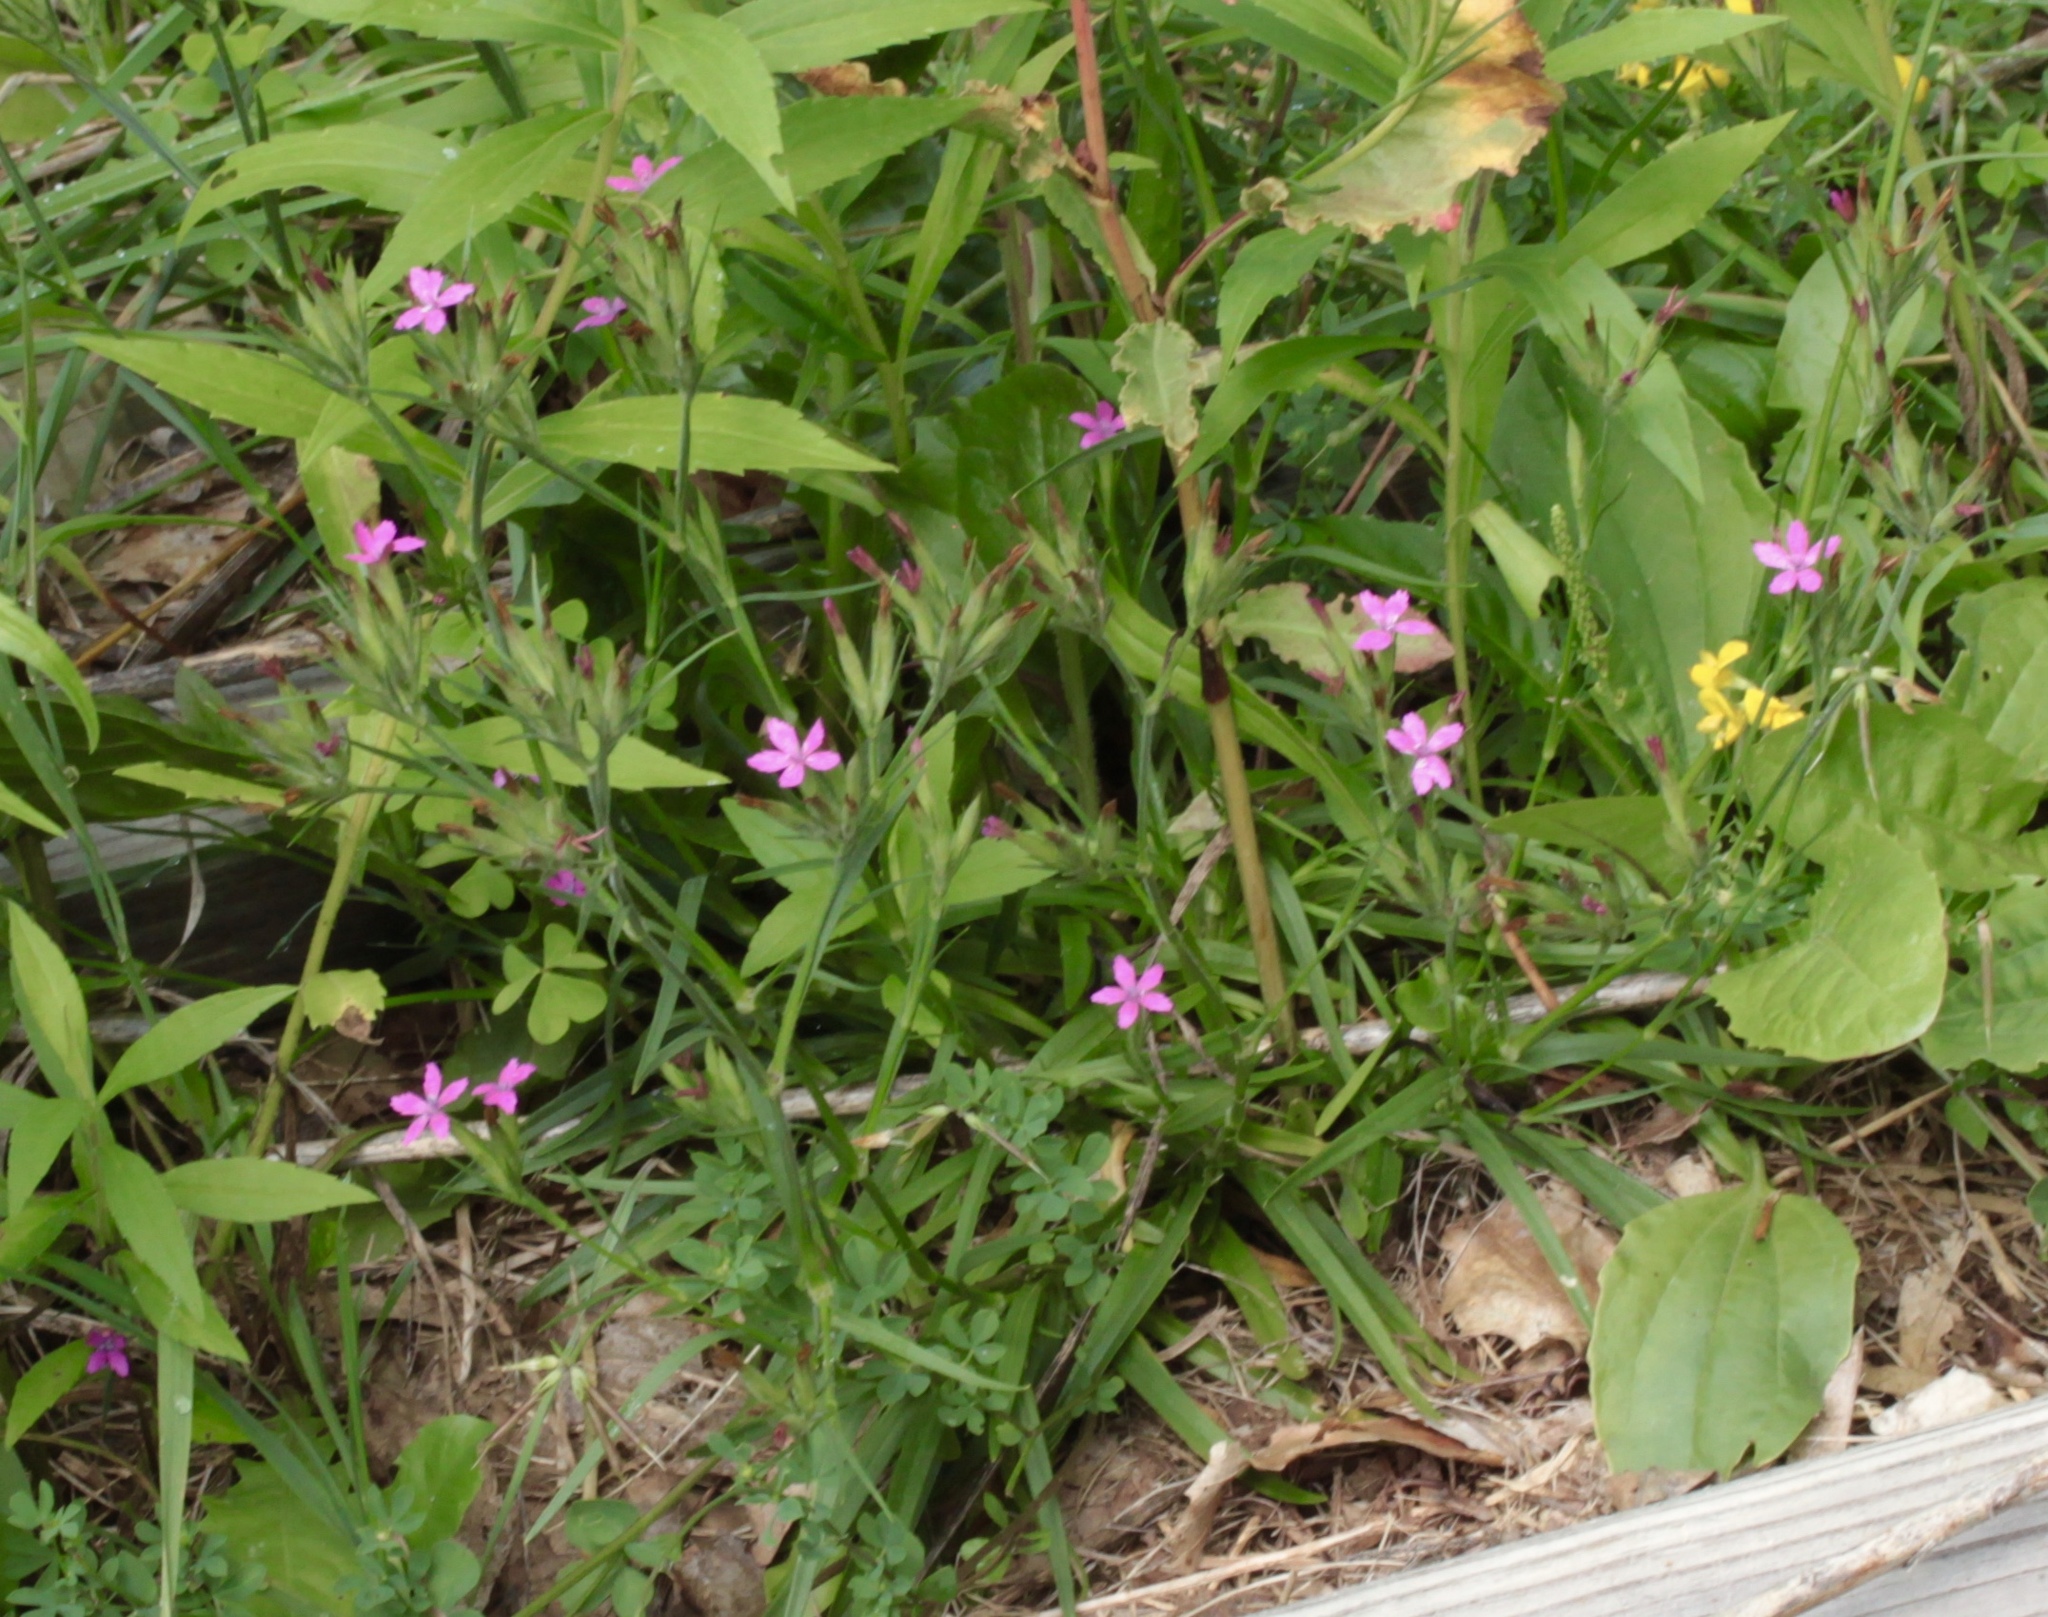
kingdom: Plantae
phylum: Tracheophyta
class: Magnoliopsida
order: Caryophyllales
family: Caryophyllaceae
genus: Dianthus
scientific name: Dianthus armeria
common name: Deptford pink
